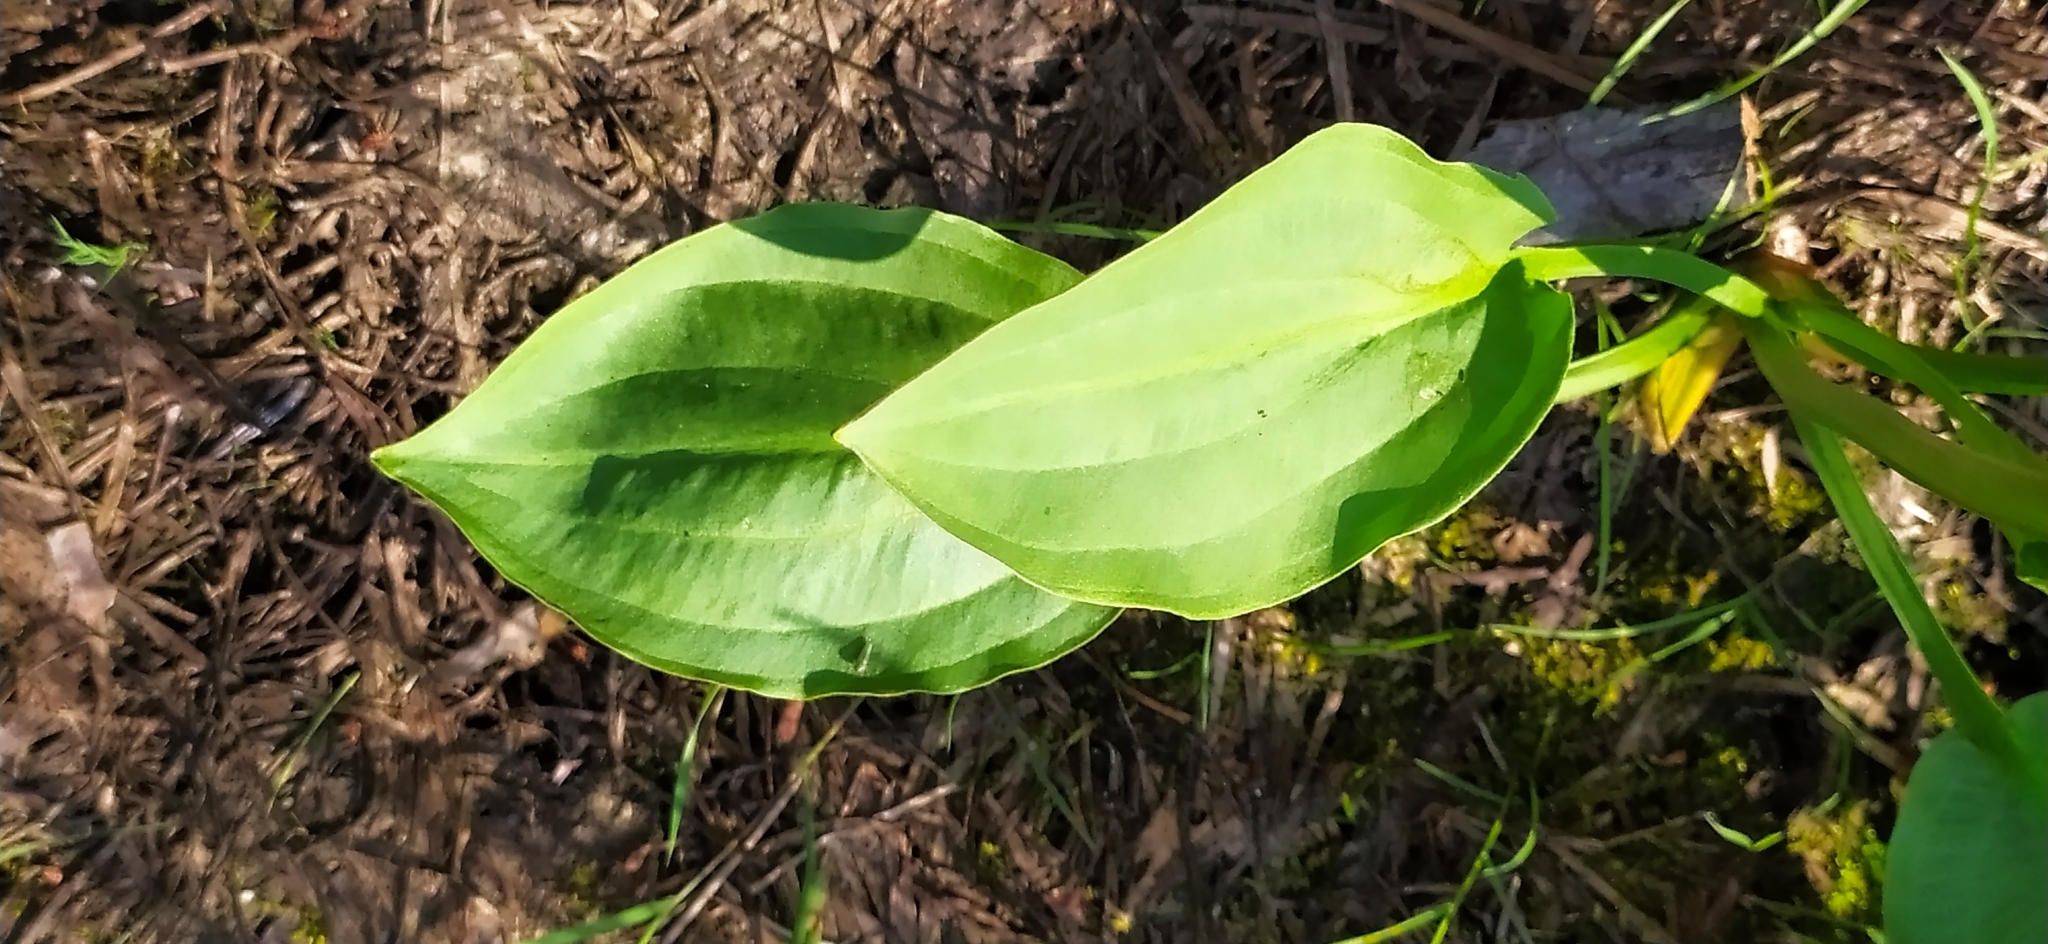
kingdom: Plantae
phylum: Tracheophyta
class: Liliopsida
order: Alismatales
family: Alismataceae
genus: Alisma
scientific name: Alisma plantago-aquatica
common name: Water-plantain
